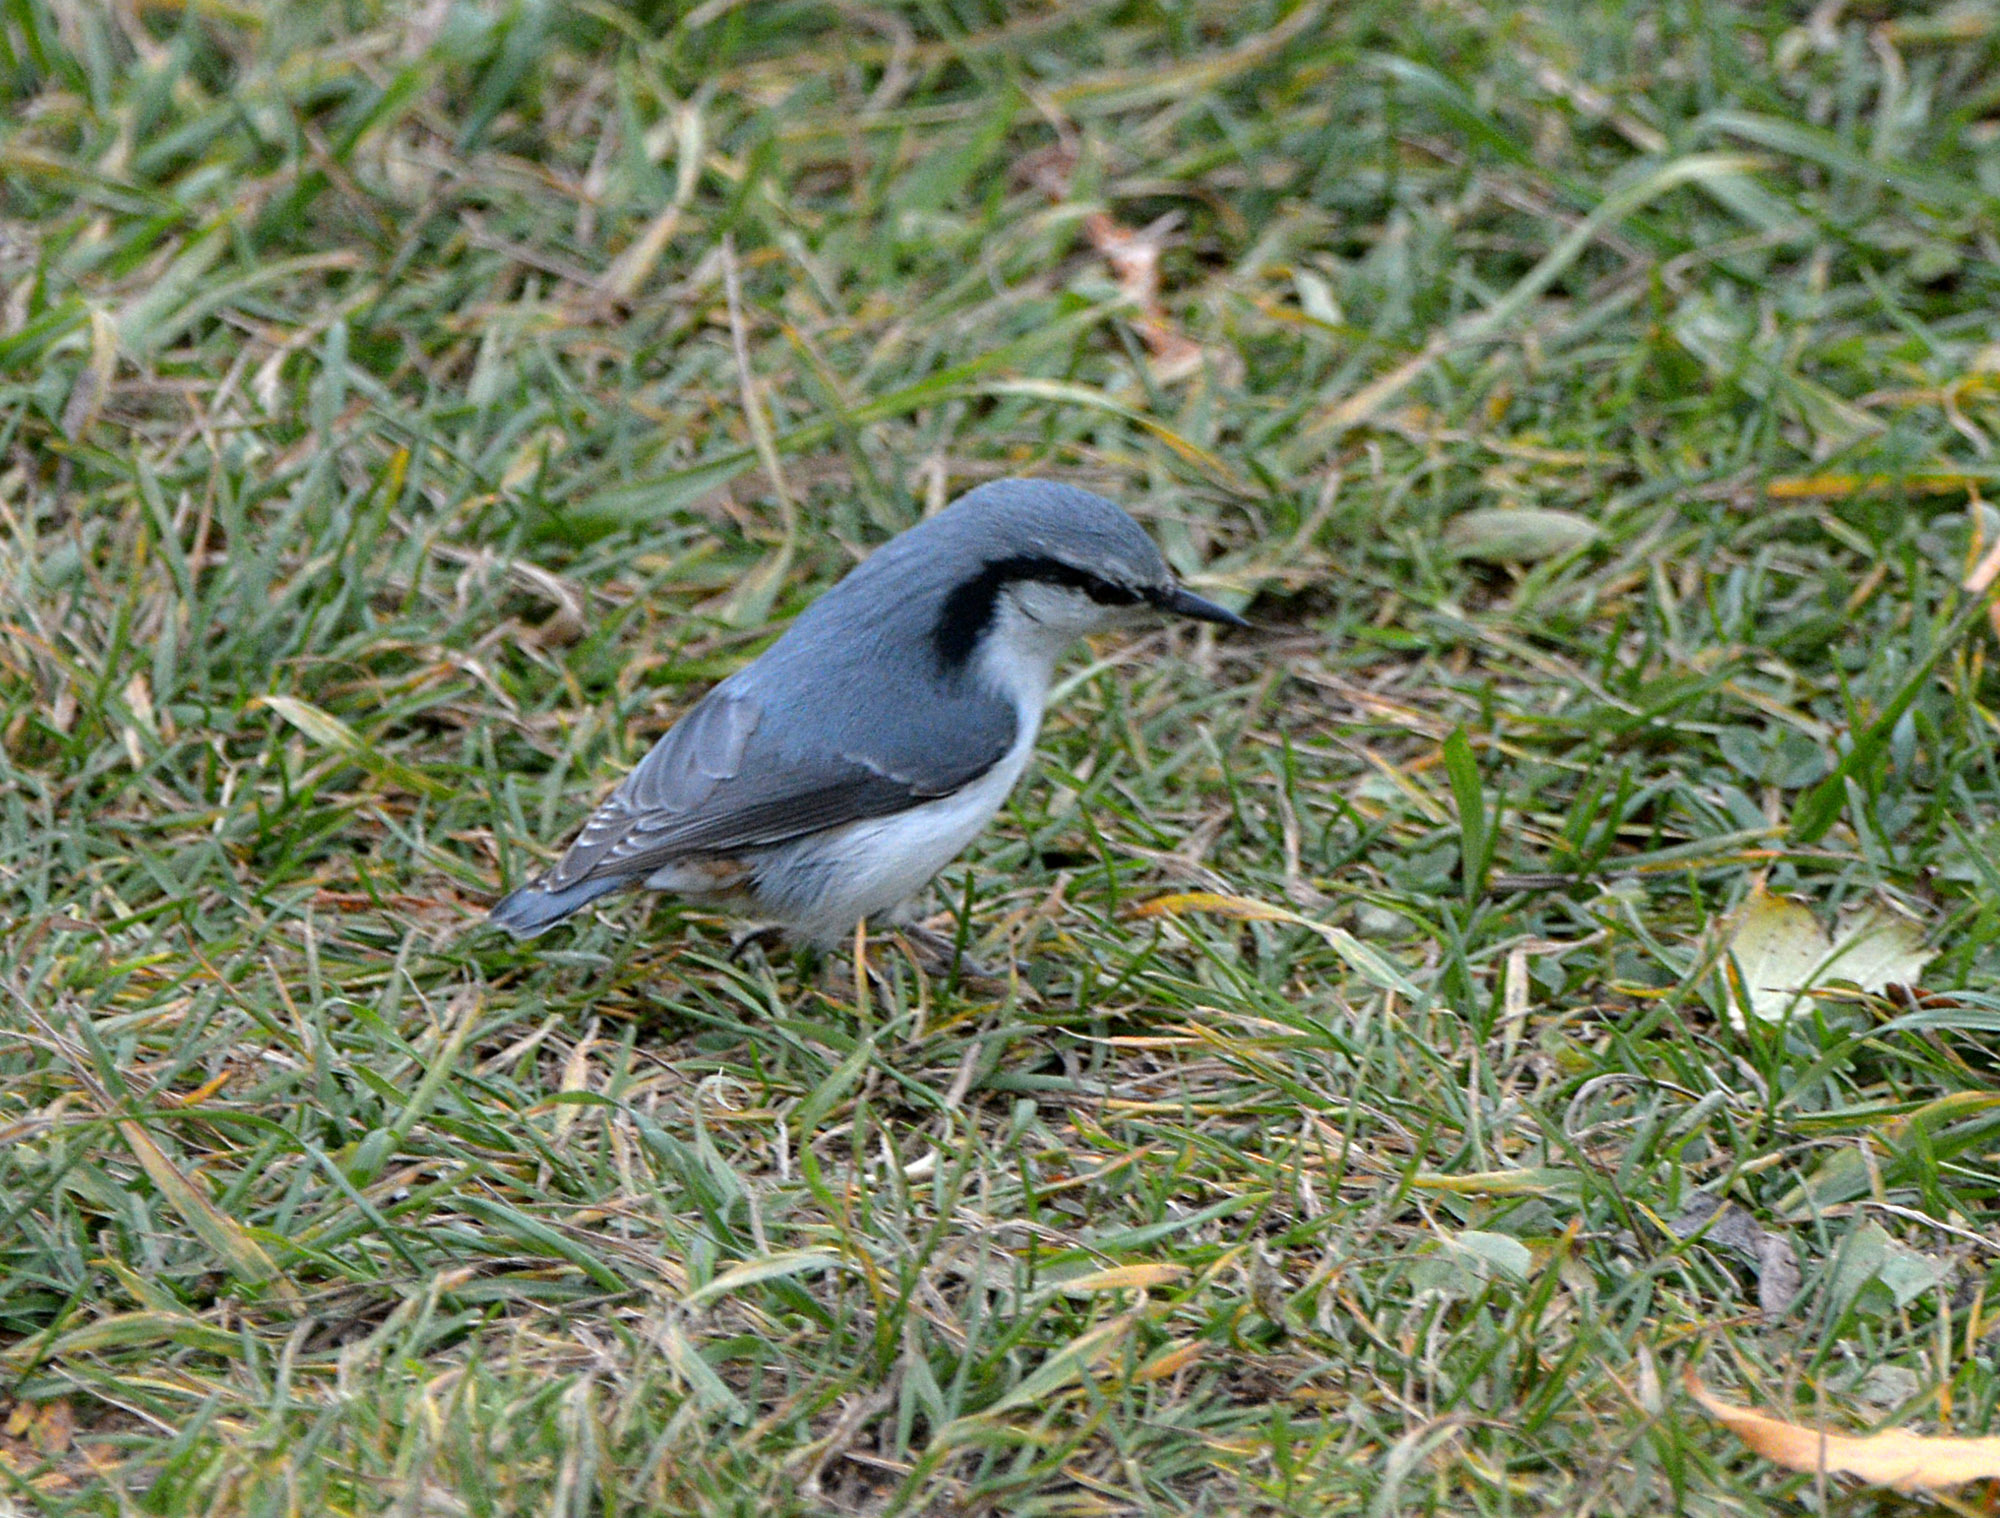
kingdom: Animalia
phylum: Chordata
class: Aves
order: Passeriformes
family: Sittidae
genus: Sitta
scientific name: Sitta europaea
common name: Eurasian nuthatch
